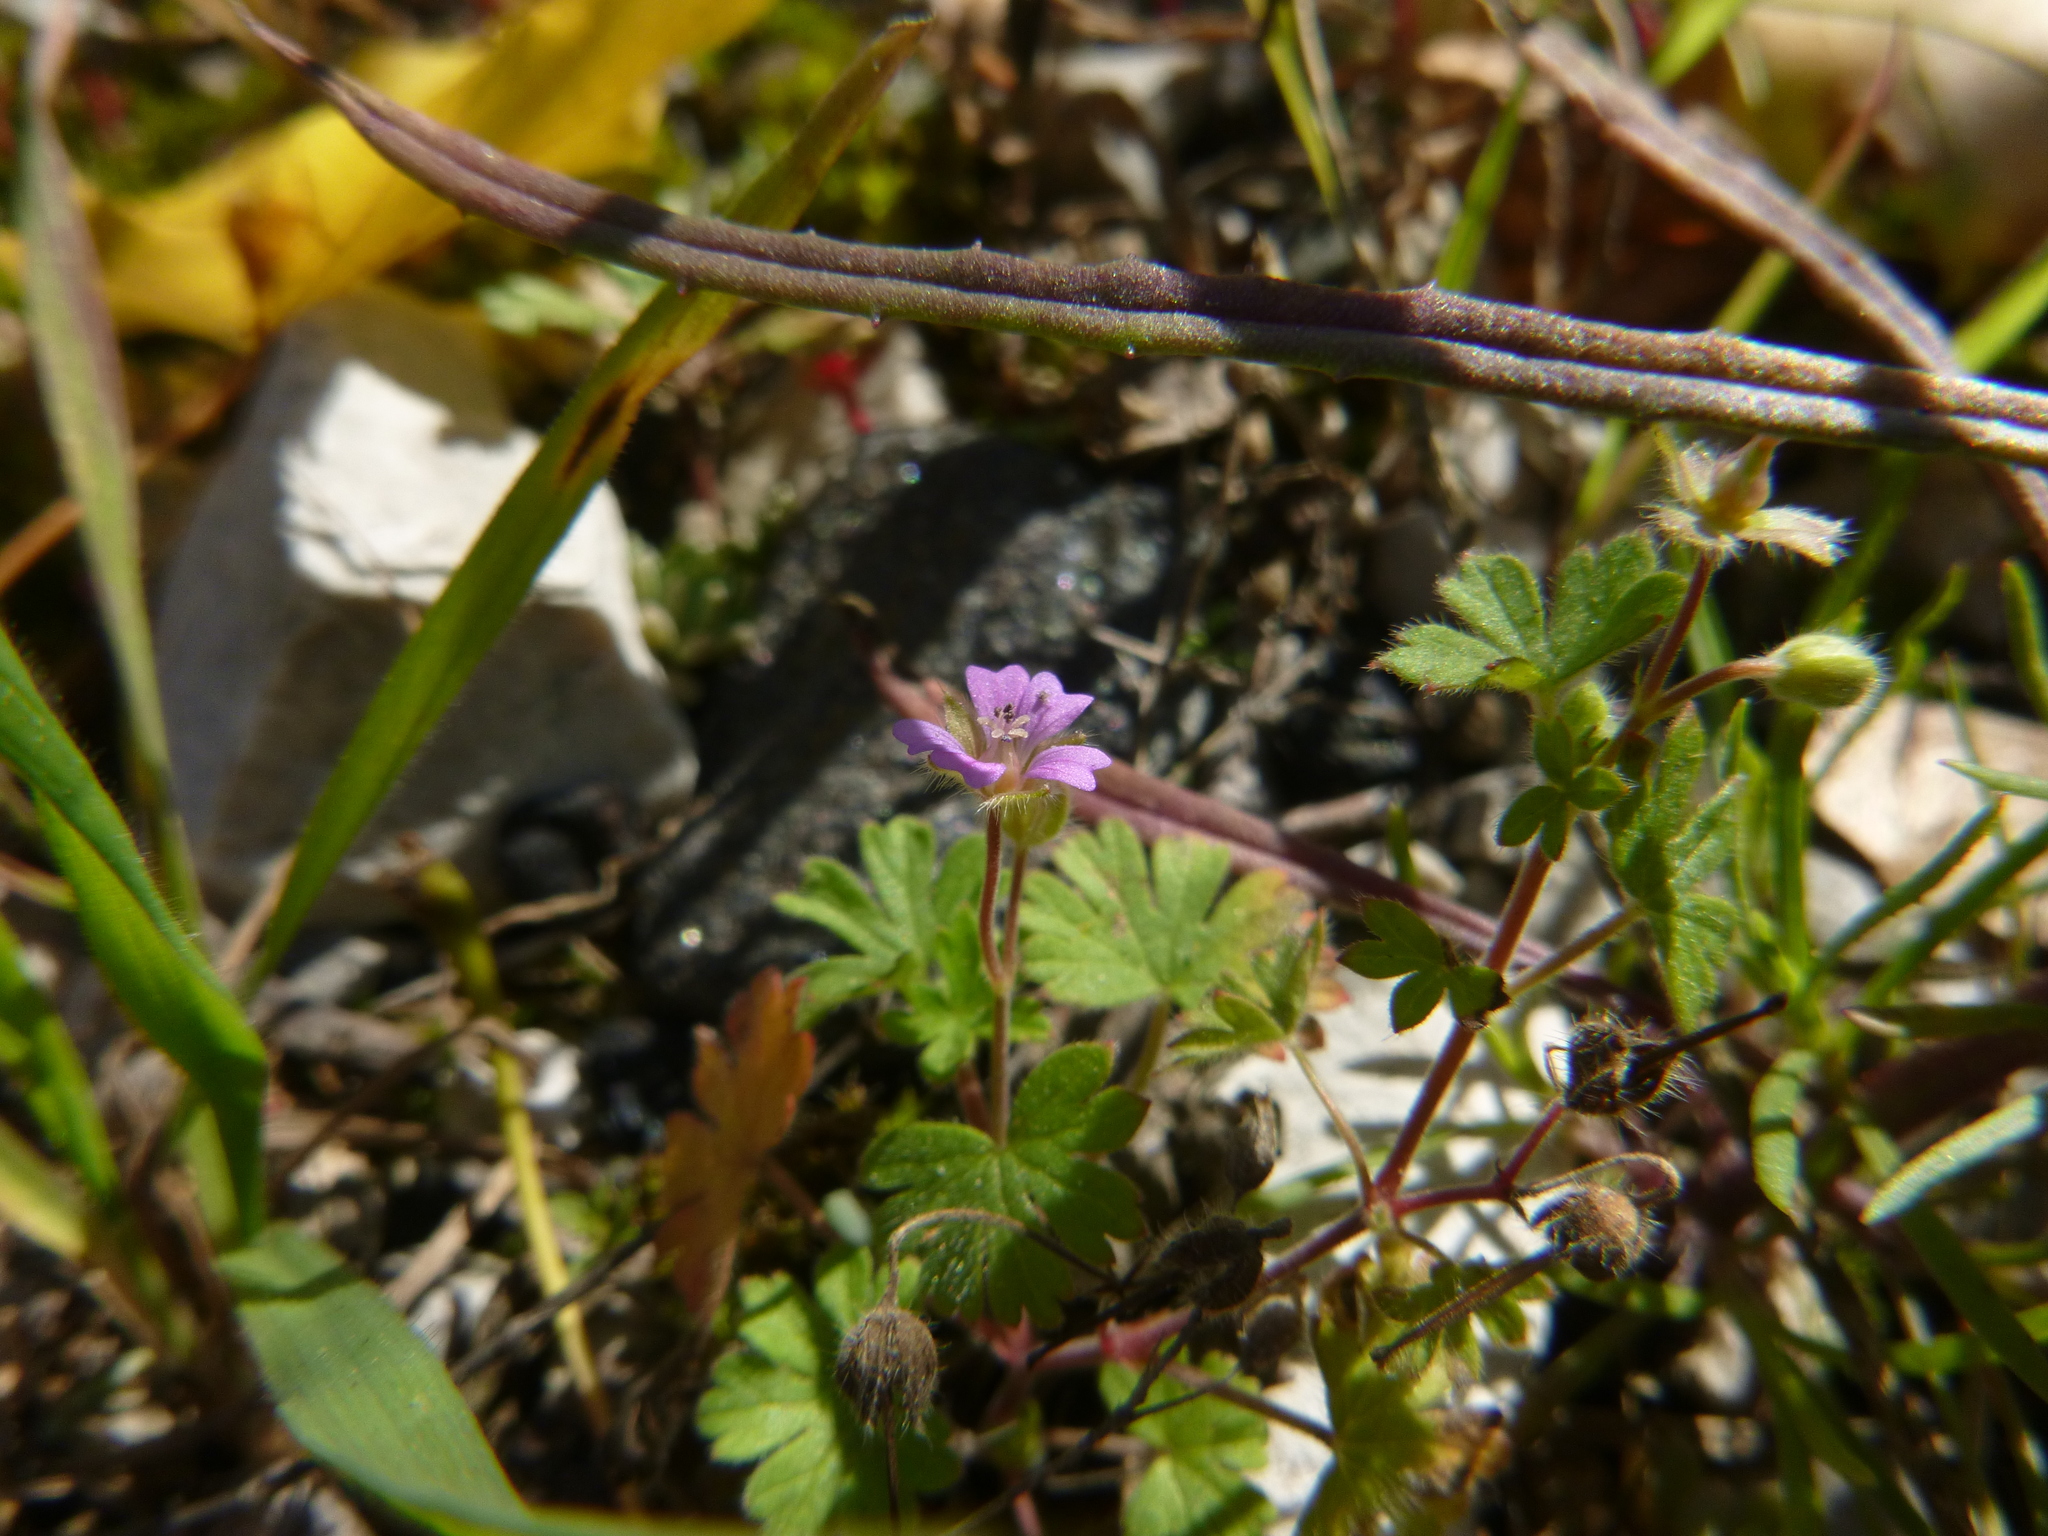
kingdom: Plantae
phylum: Tracheophyta
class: Magnoliopsida
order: Geraniales
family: Geraniaceae
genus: Geranium
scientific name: Geranium pusillum
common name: Small geranium
